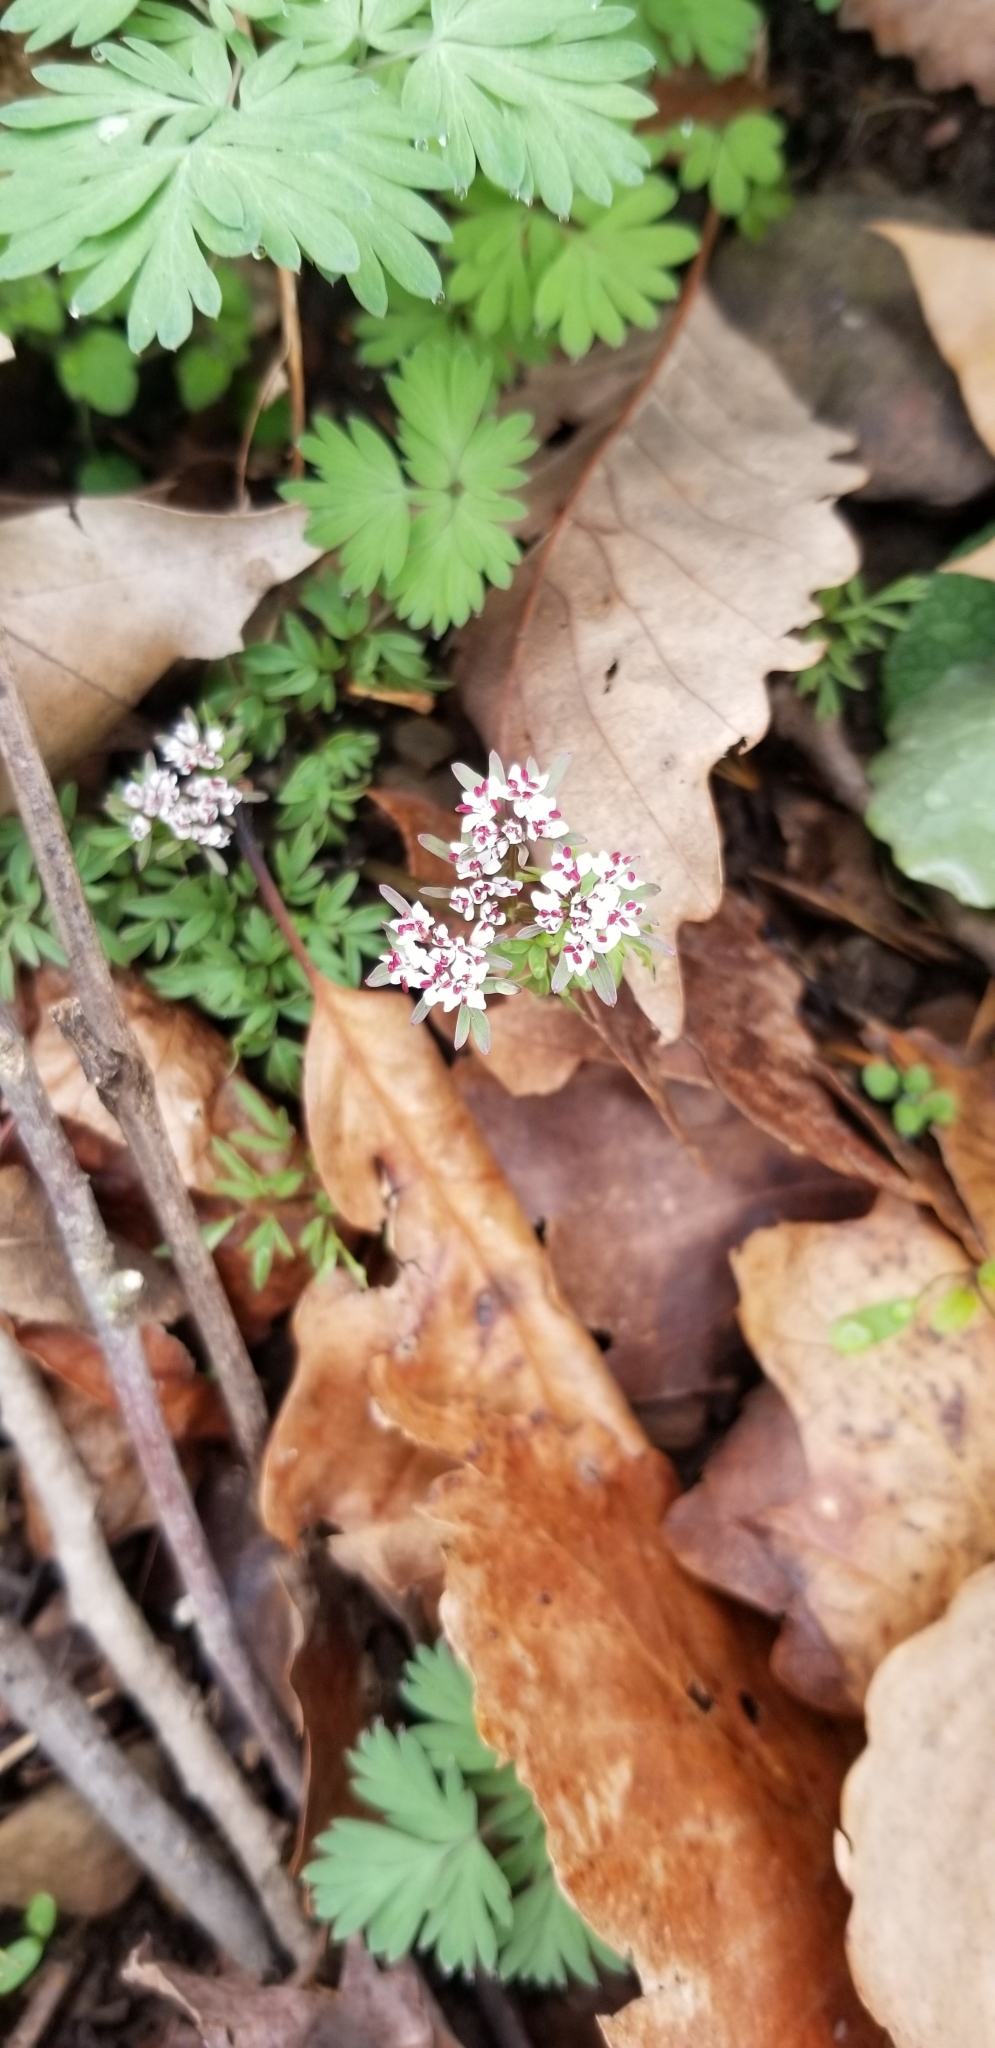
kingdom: Plantae
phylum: Tracheophyta
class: Magnoliopsida
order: Apiales
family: Apiaceae
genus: Erigenia
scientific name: Erigenia bulbosa
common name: Pepper-and-salt
